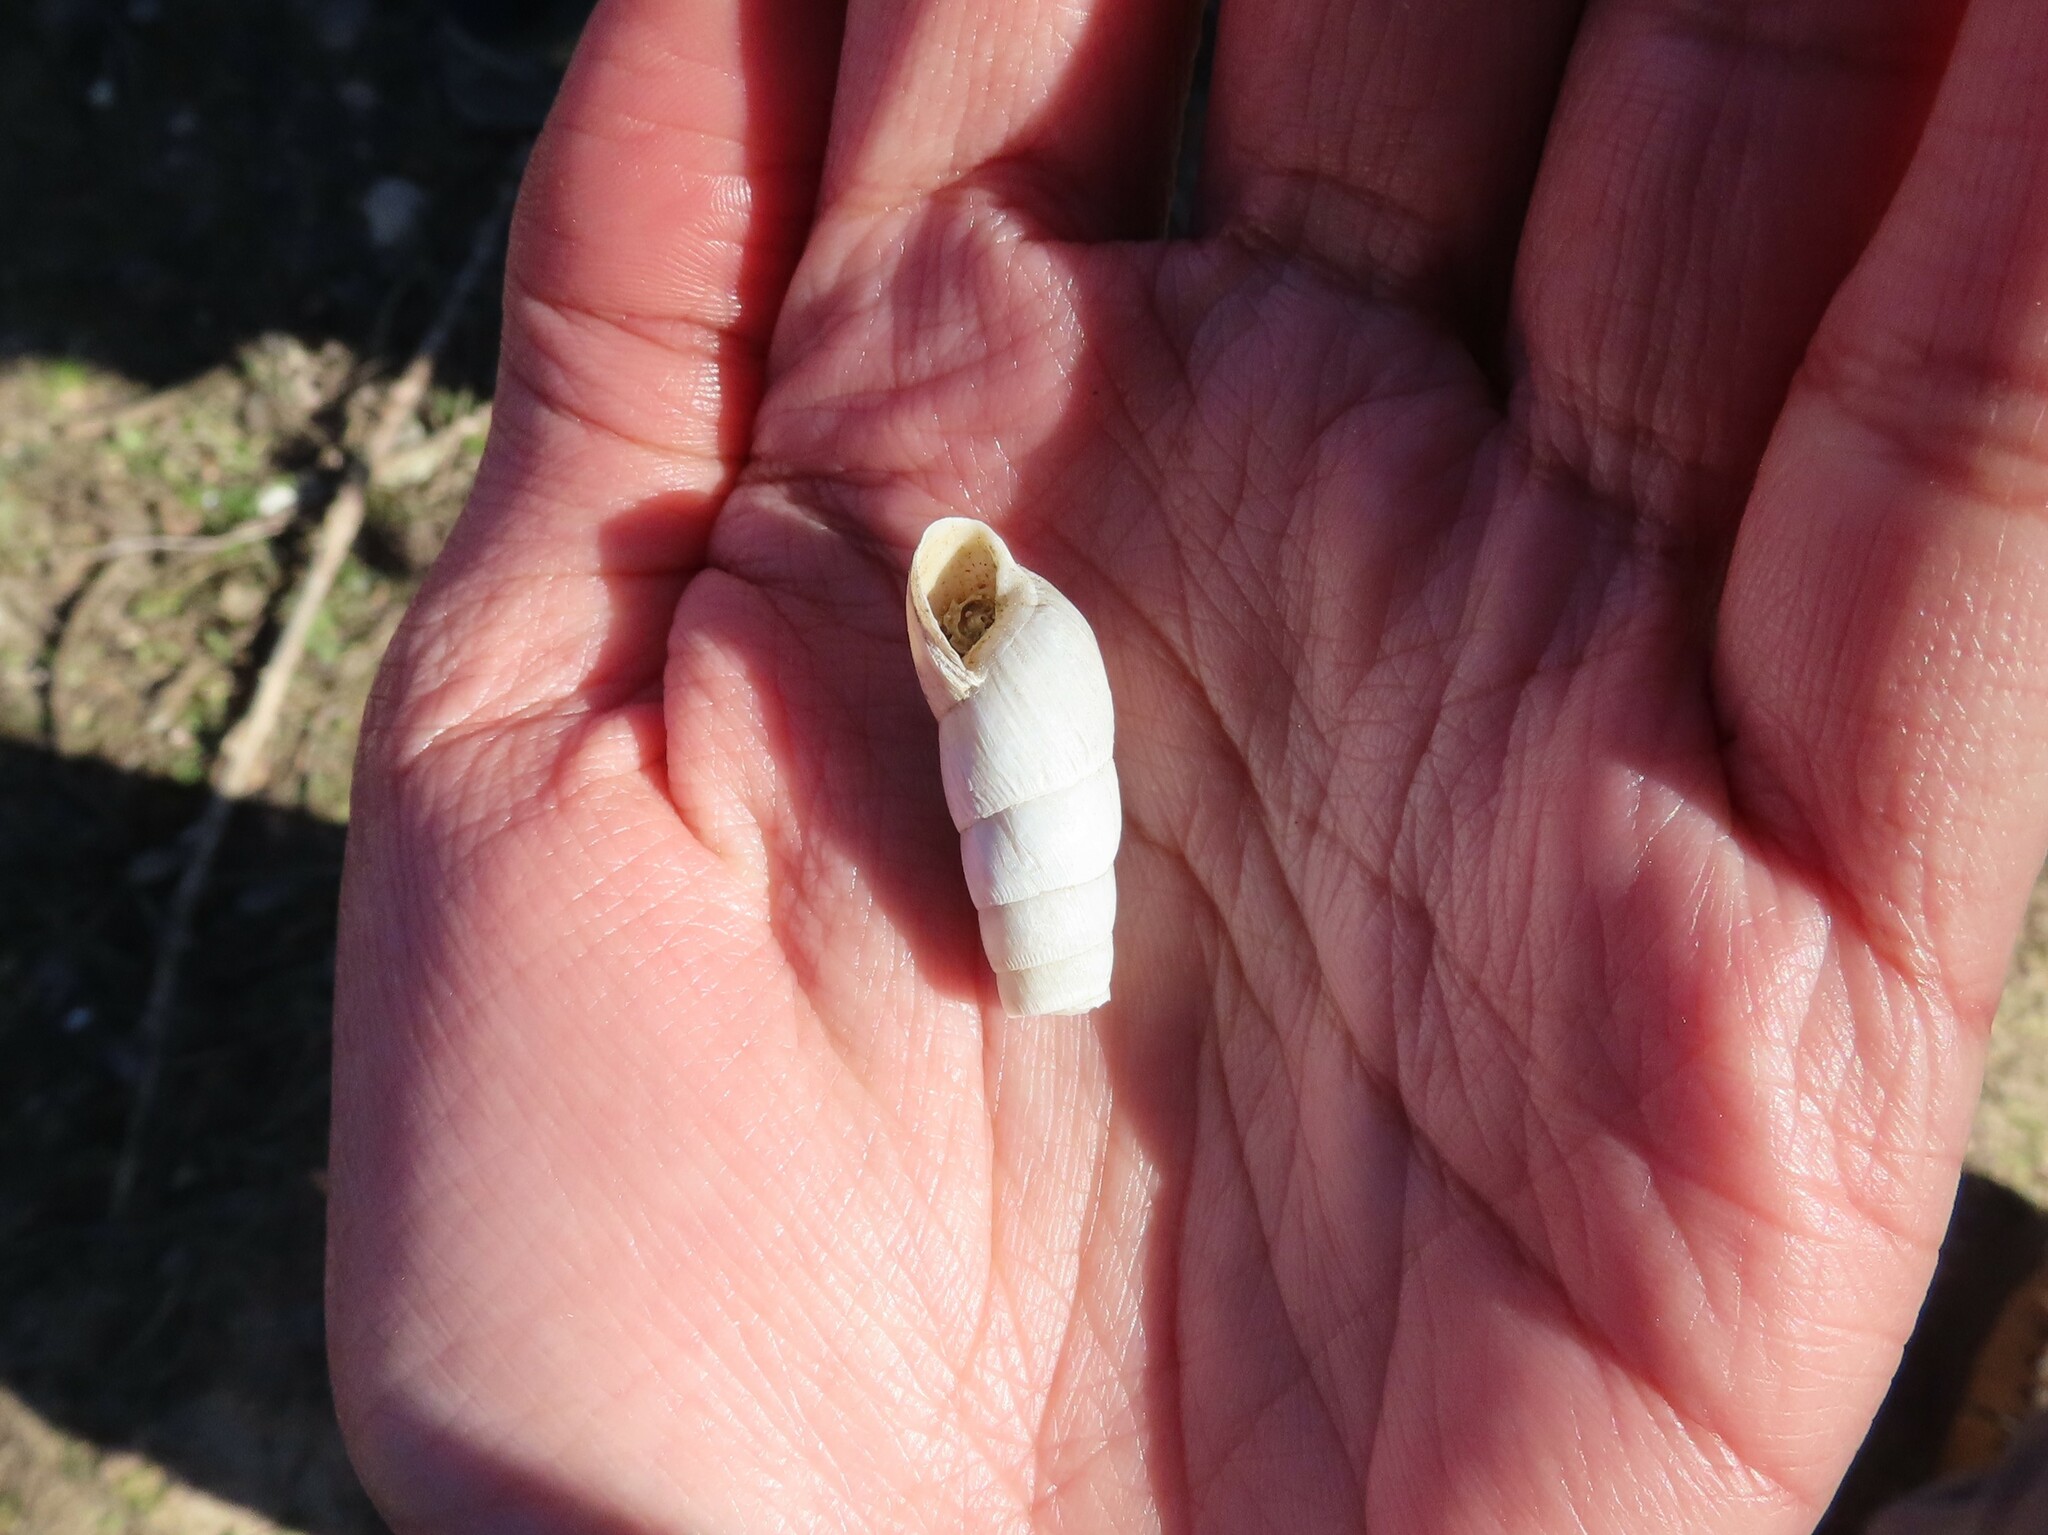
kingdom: Animalia
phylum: Mollusca
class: Gastropoda
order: Stylommatophora
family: Achatinidae
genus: Rumina
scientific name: Rumina decollata
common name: Decollate snail
